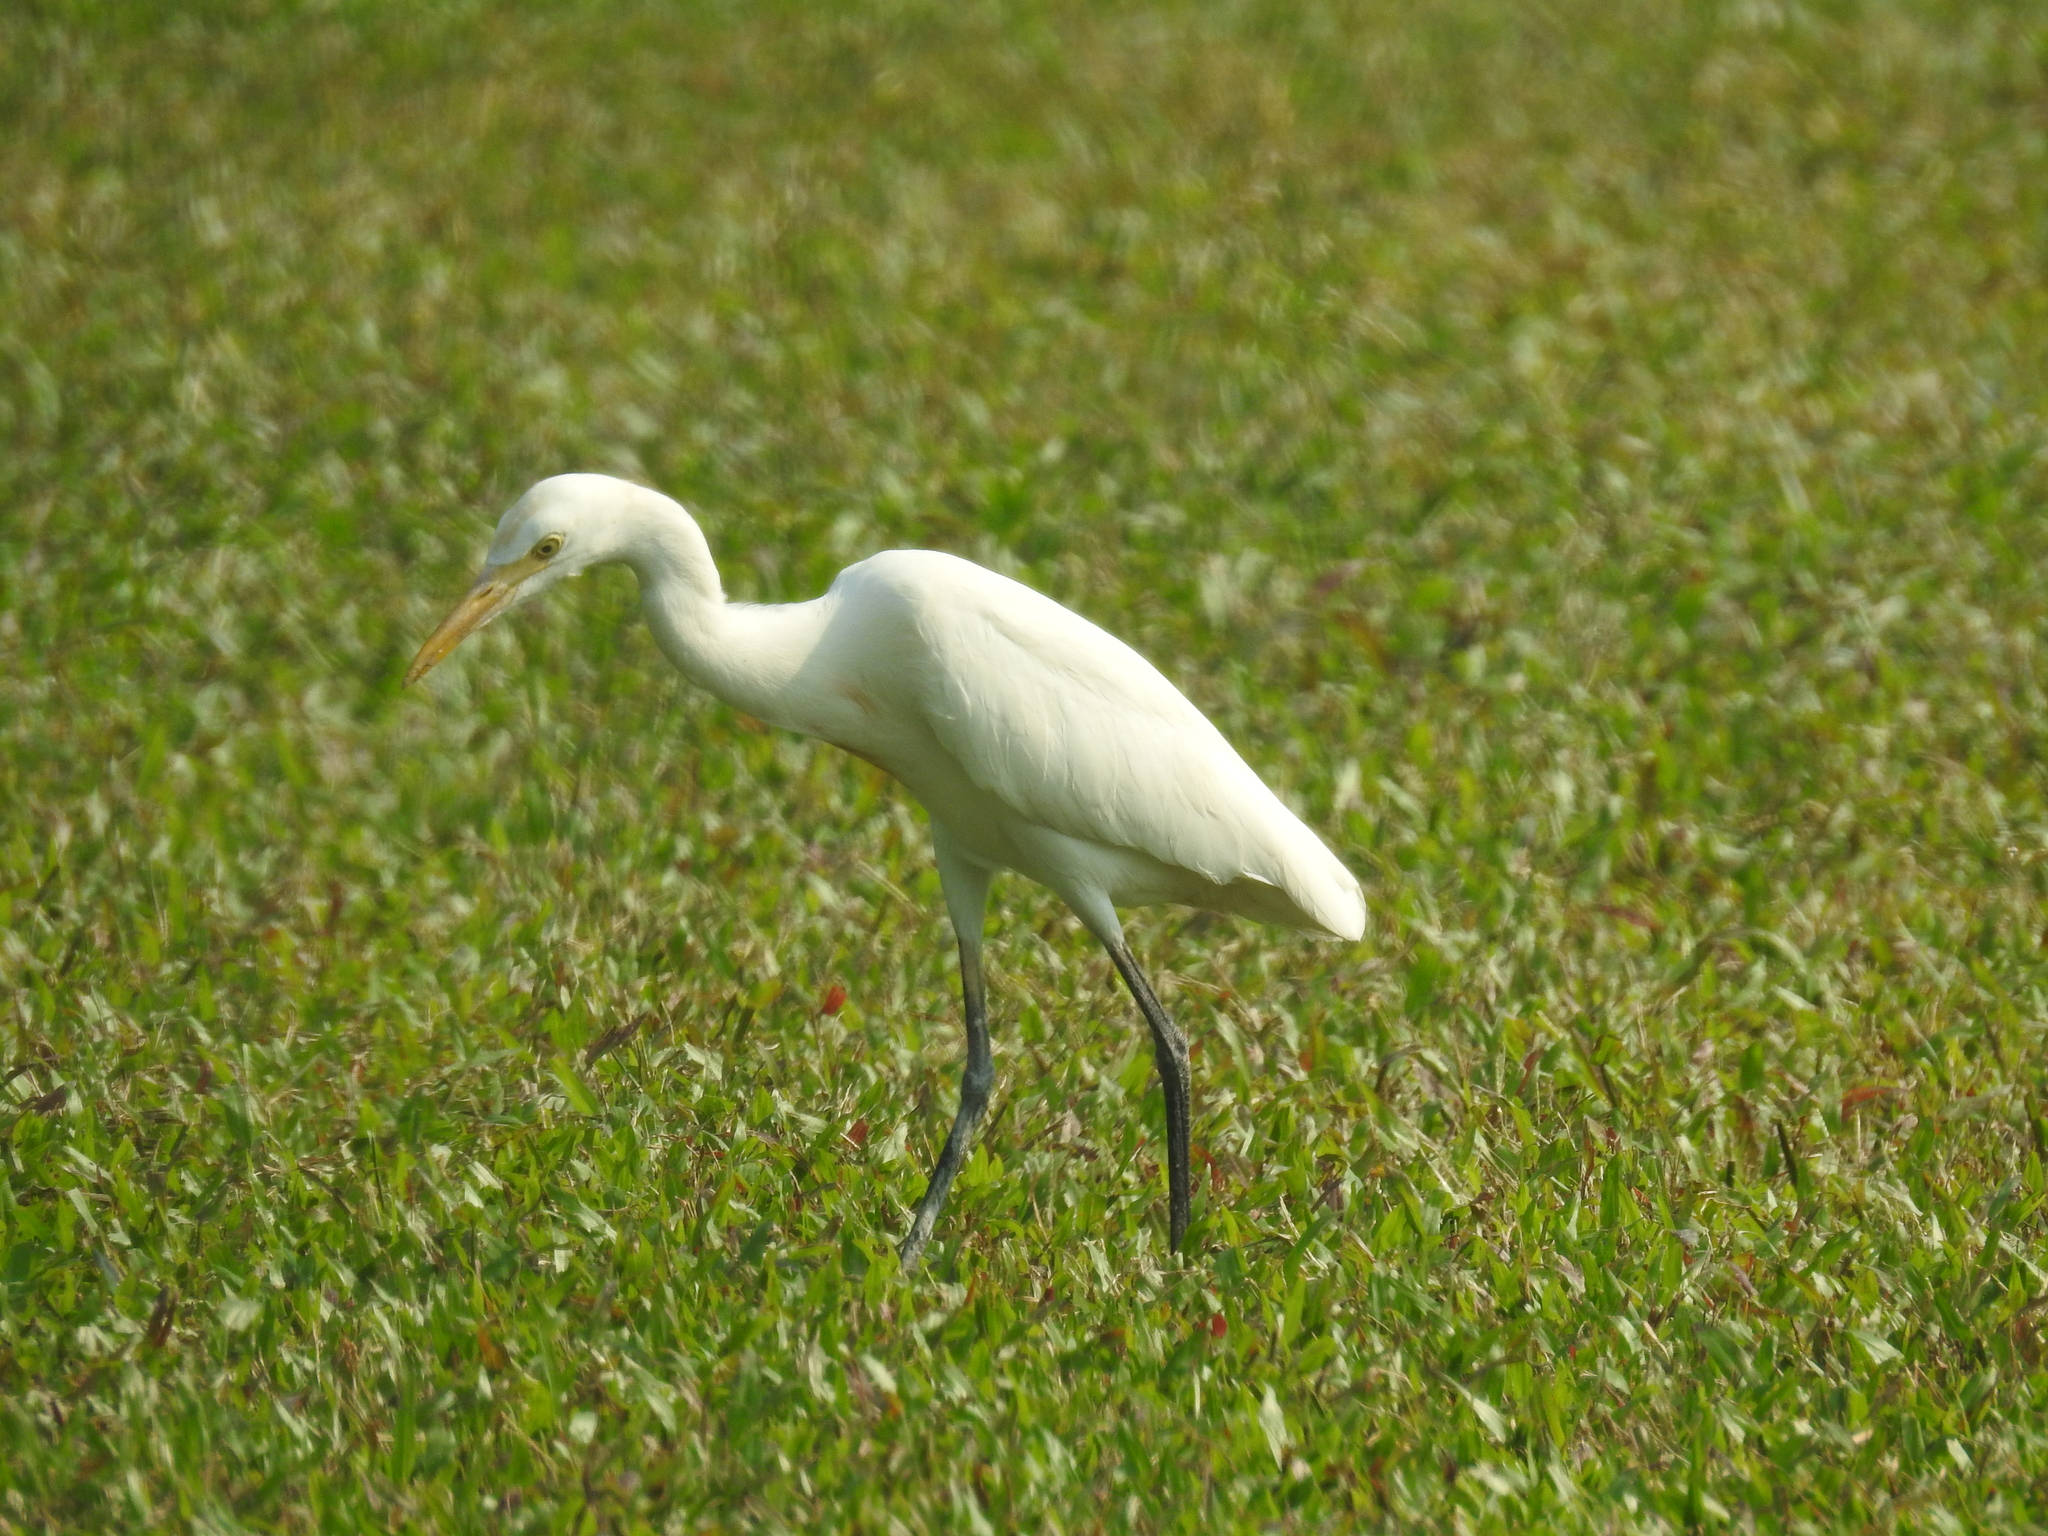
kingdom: Animalia
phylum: Chordata
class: Aves
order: Pelecaniformes
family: Ardeidae
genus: Bubulcus
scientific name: Bubulcus coromandus
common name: Eastern cattle egret
